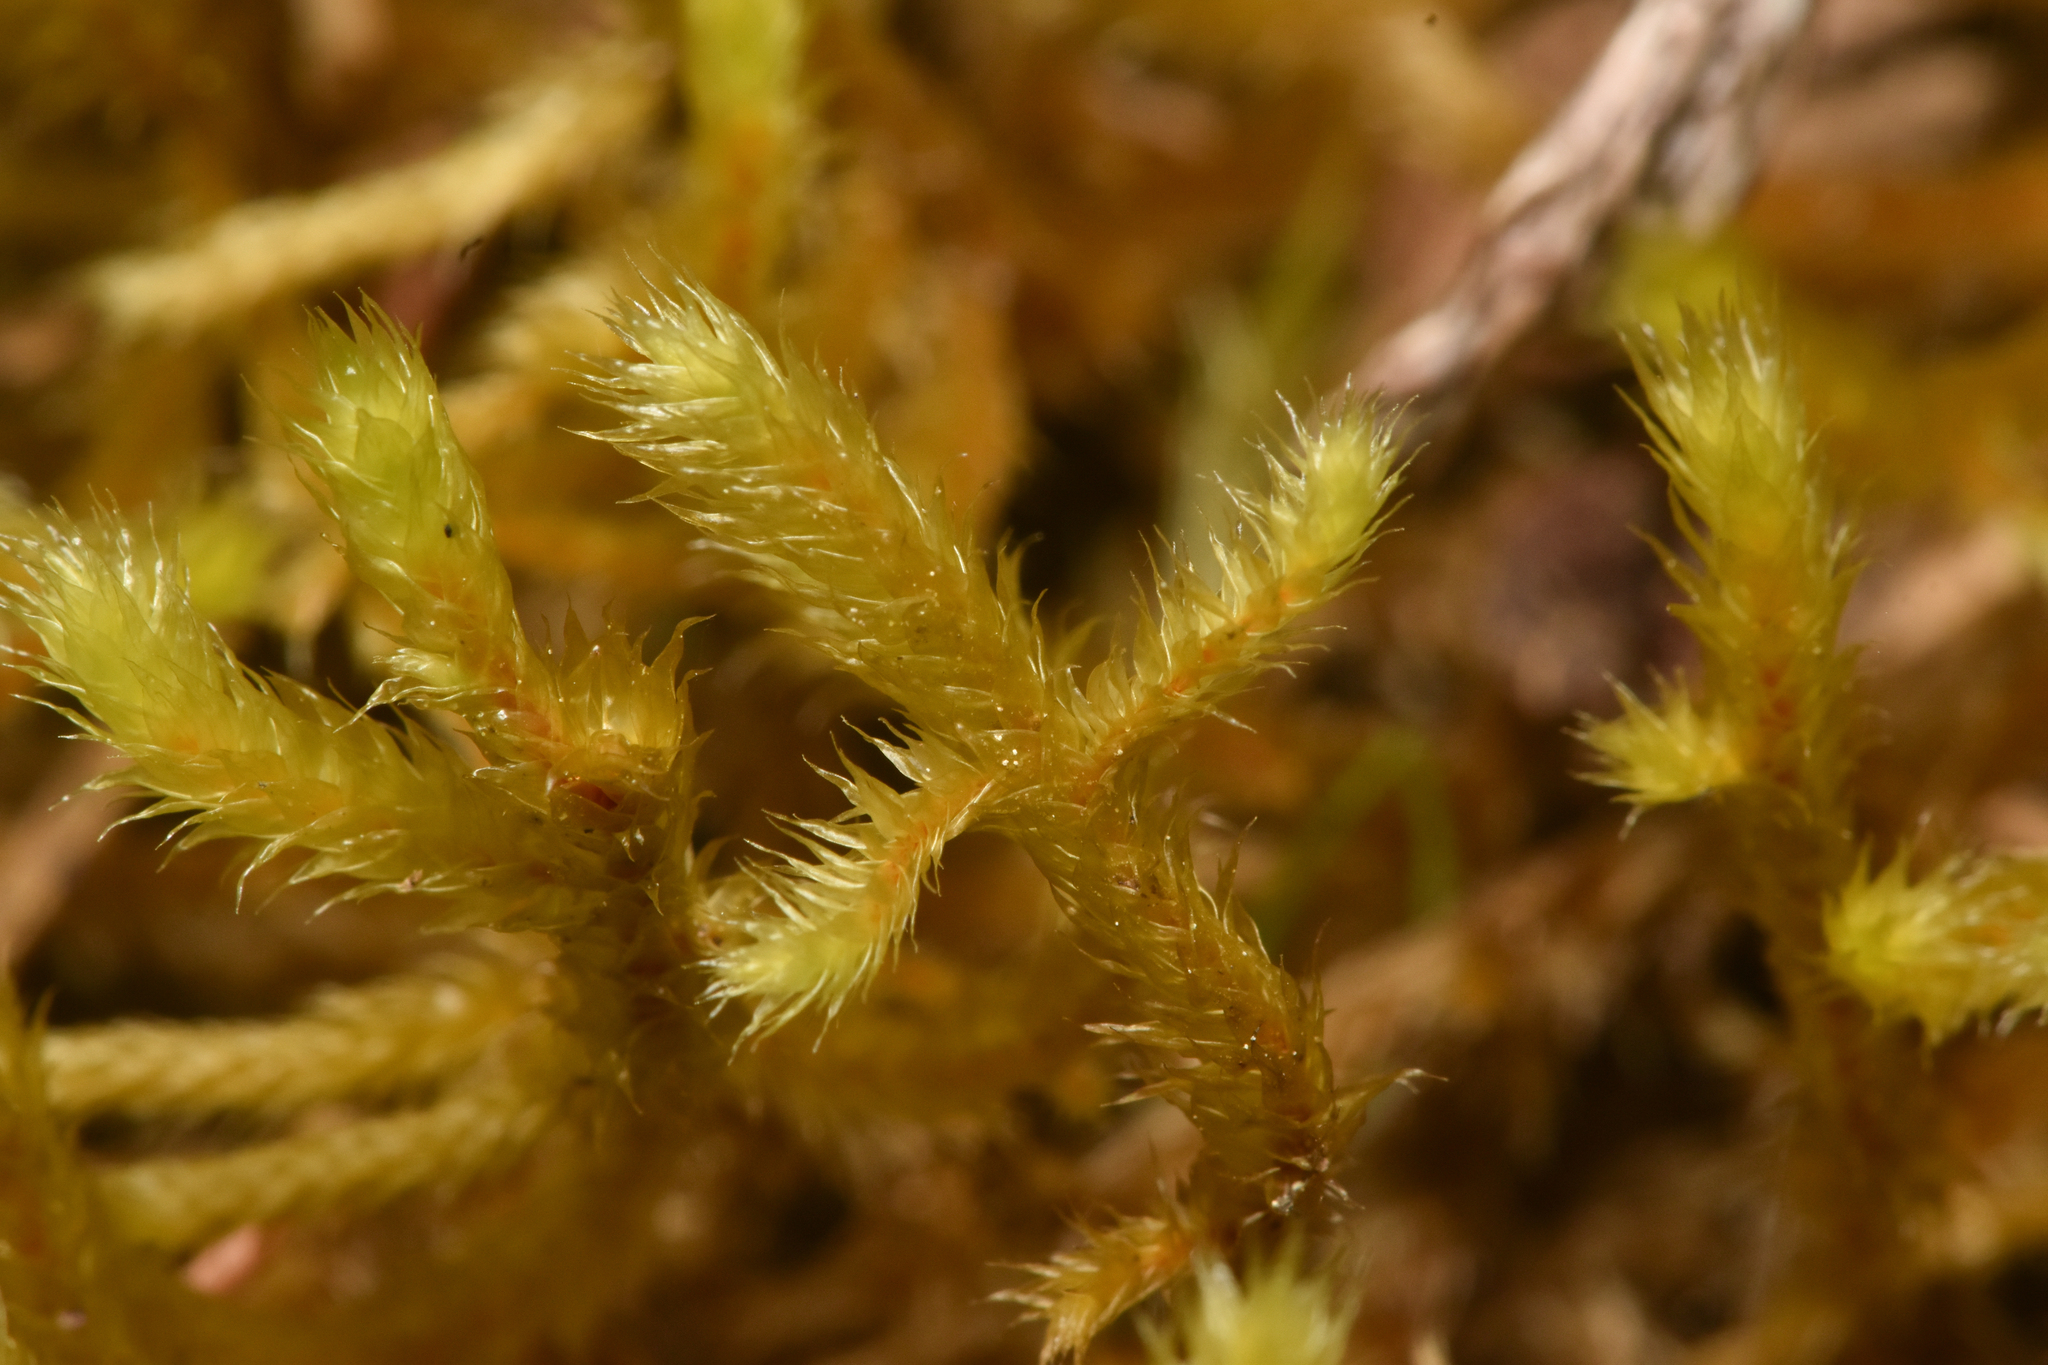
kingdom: Plantae
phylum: Bryophyta
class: Bryopsida
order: Hypnales
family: Antitrichiaceae
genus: Antitrichia
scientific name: Antitrichia curtipendula
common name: Pendulous wing-moss
